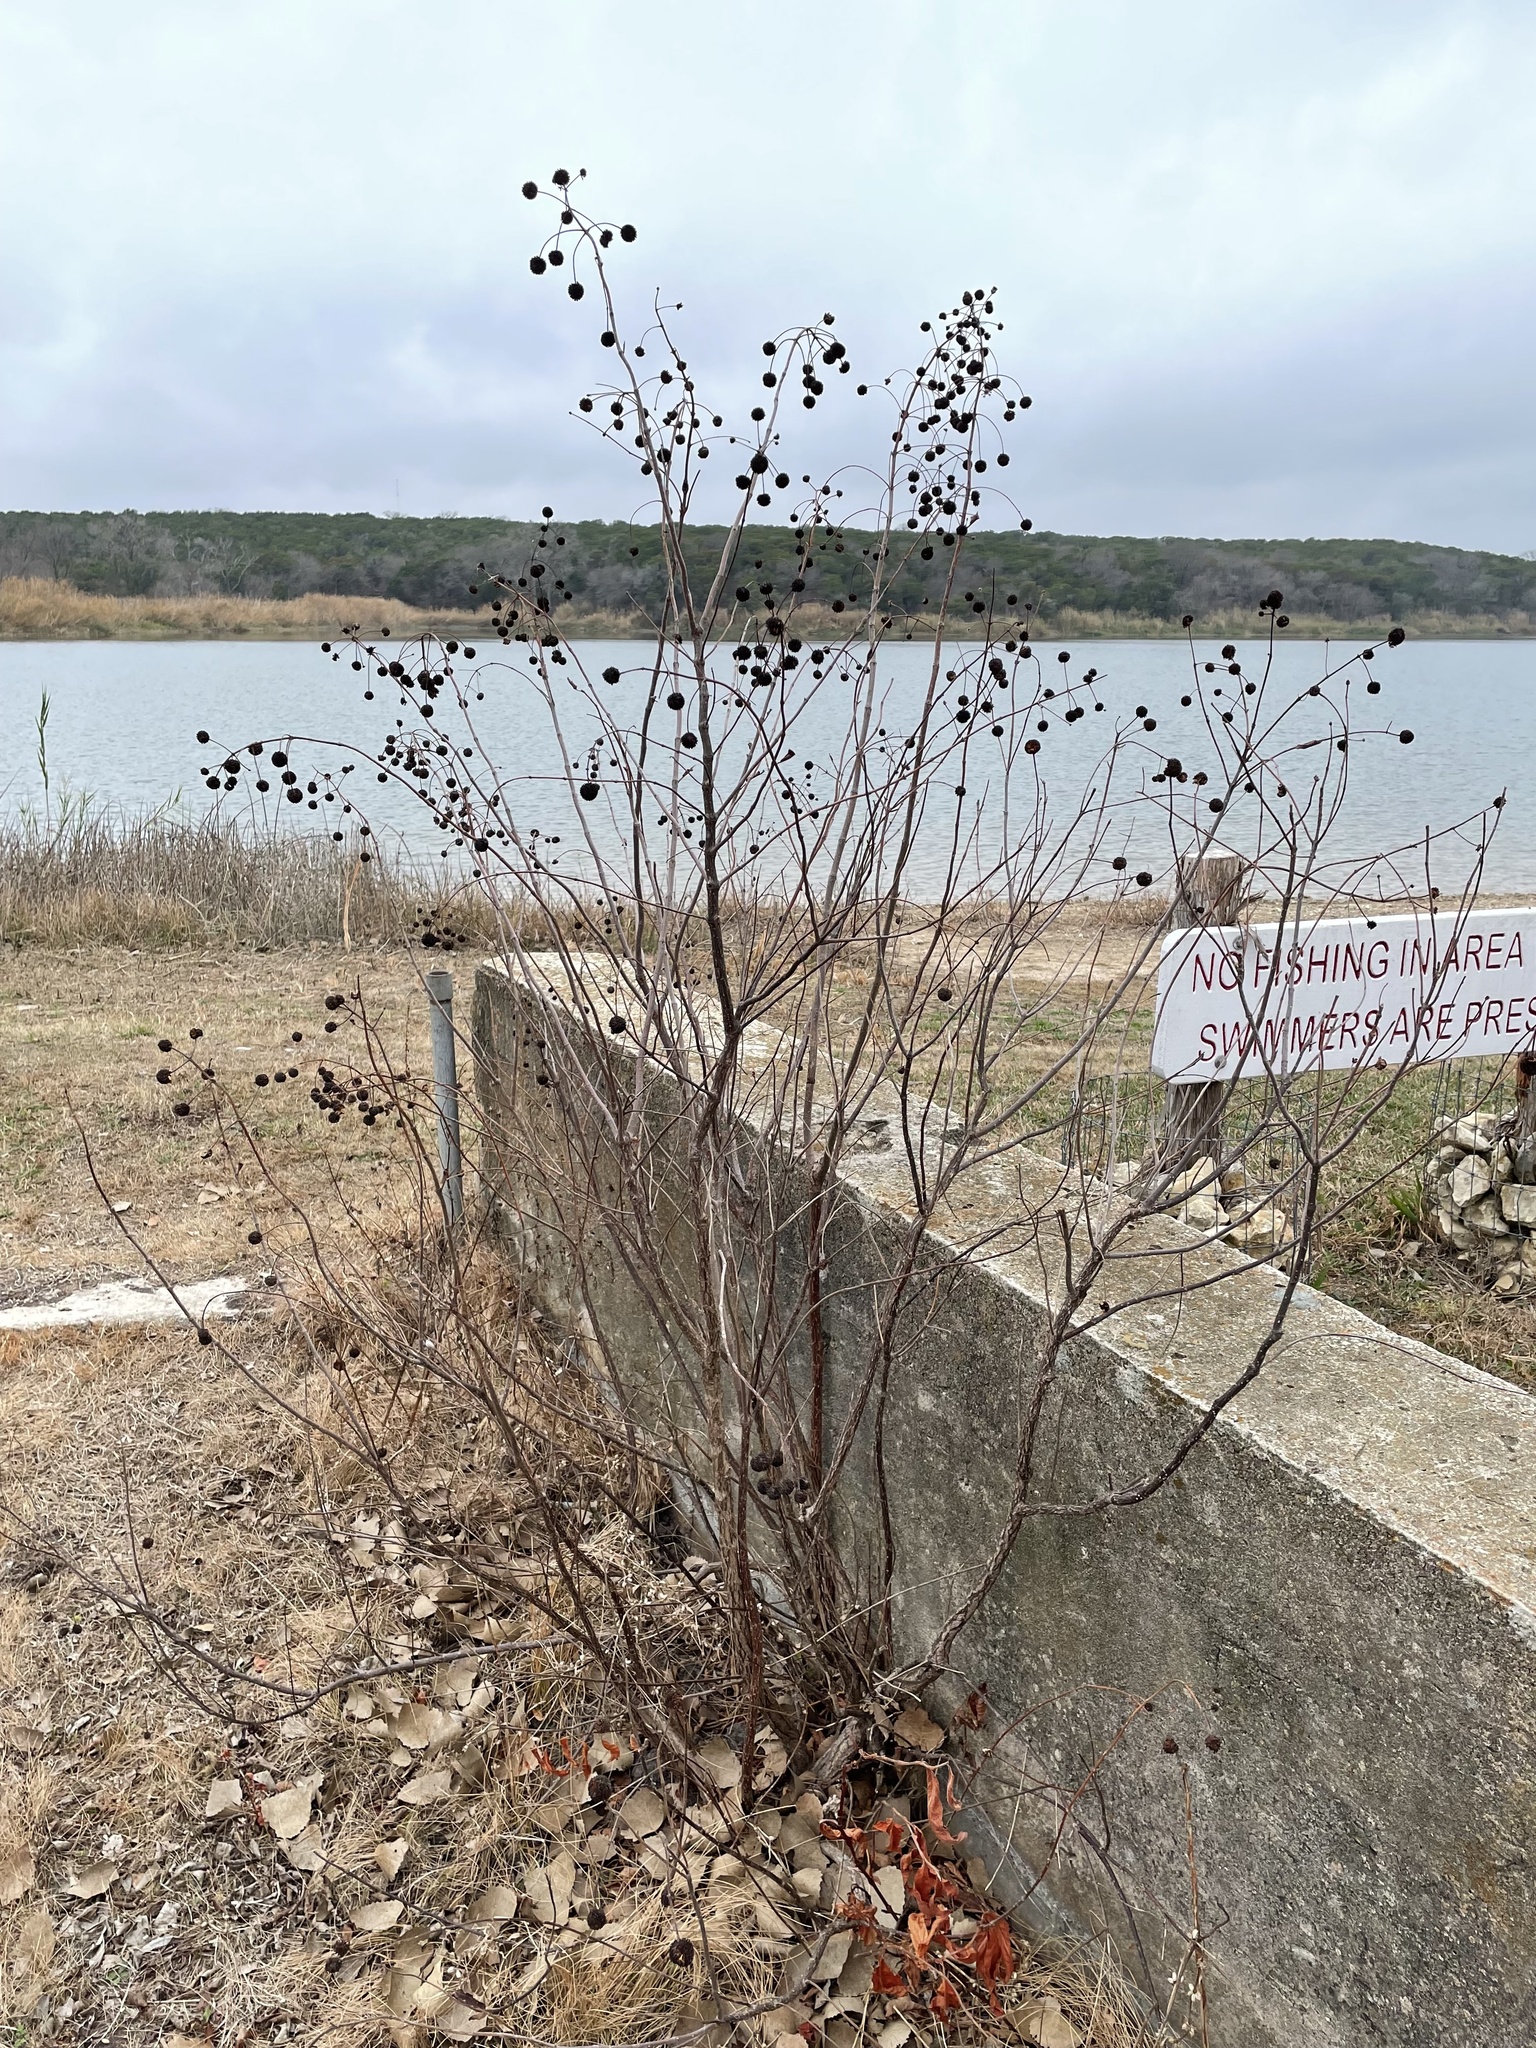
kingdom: Plantae
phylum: Tracheophyta
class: Magnoliopsida
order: Gentianales
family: Rubiaceae
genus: Cephalanthus
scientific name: Cephalanthus occidentalis
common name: Button-willow
